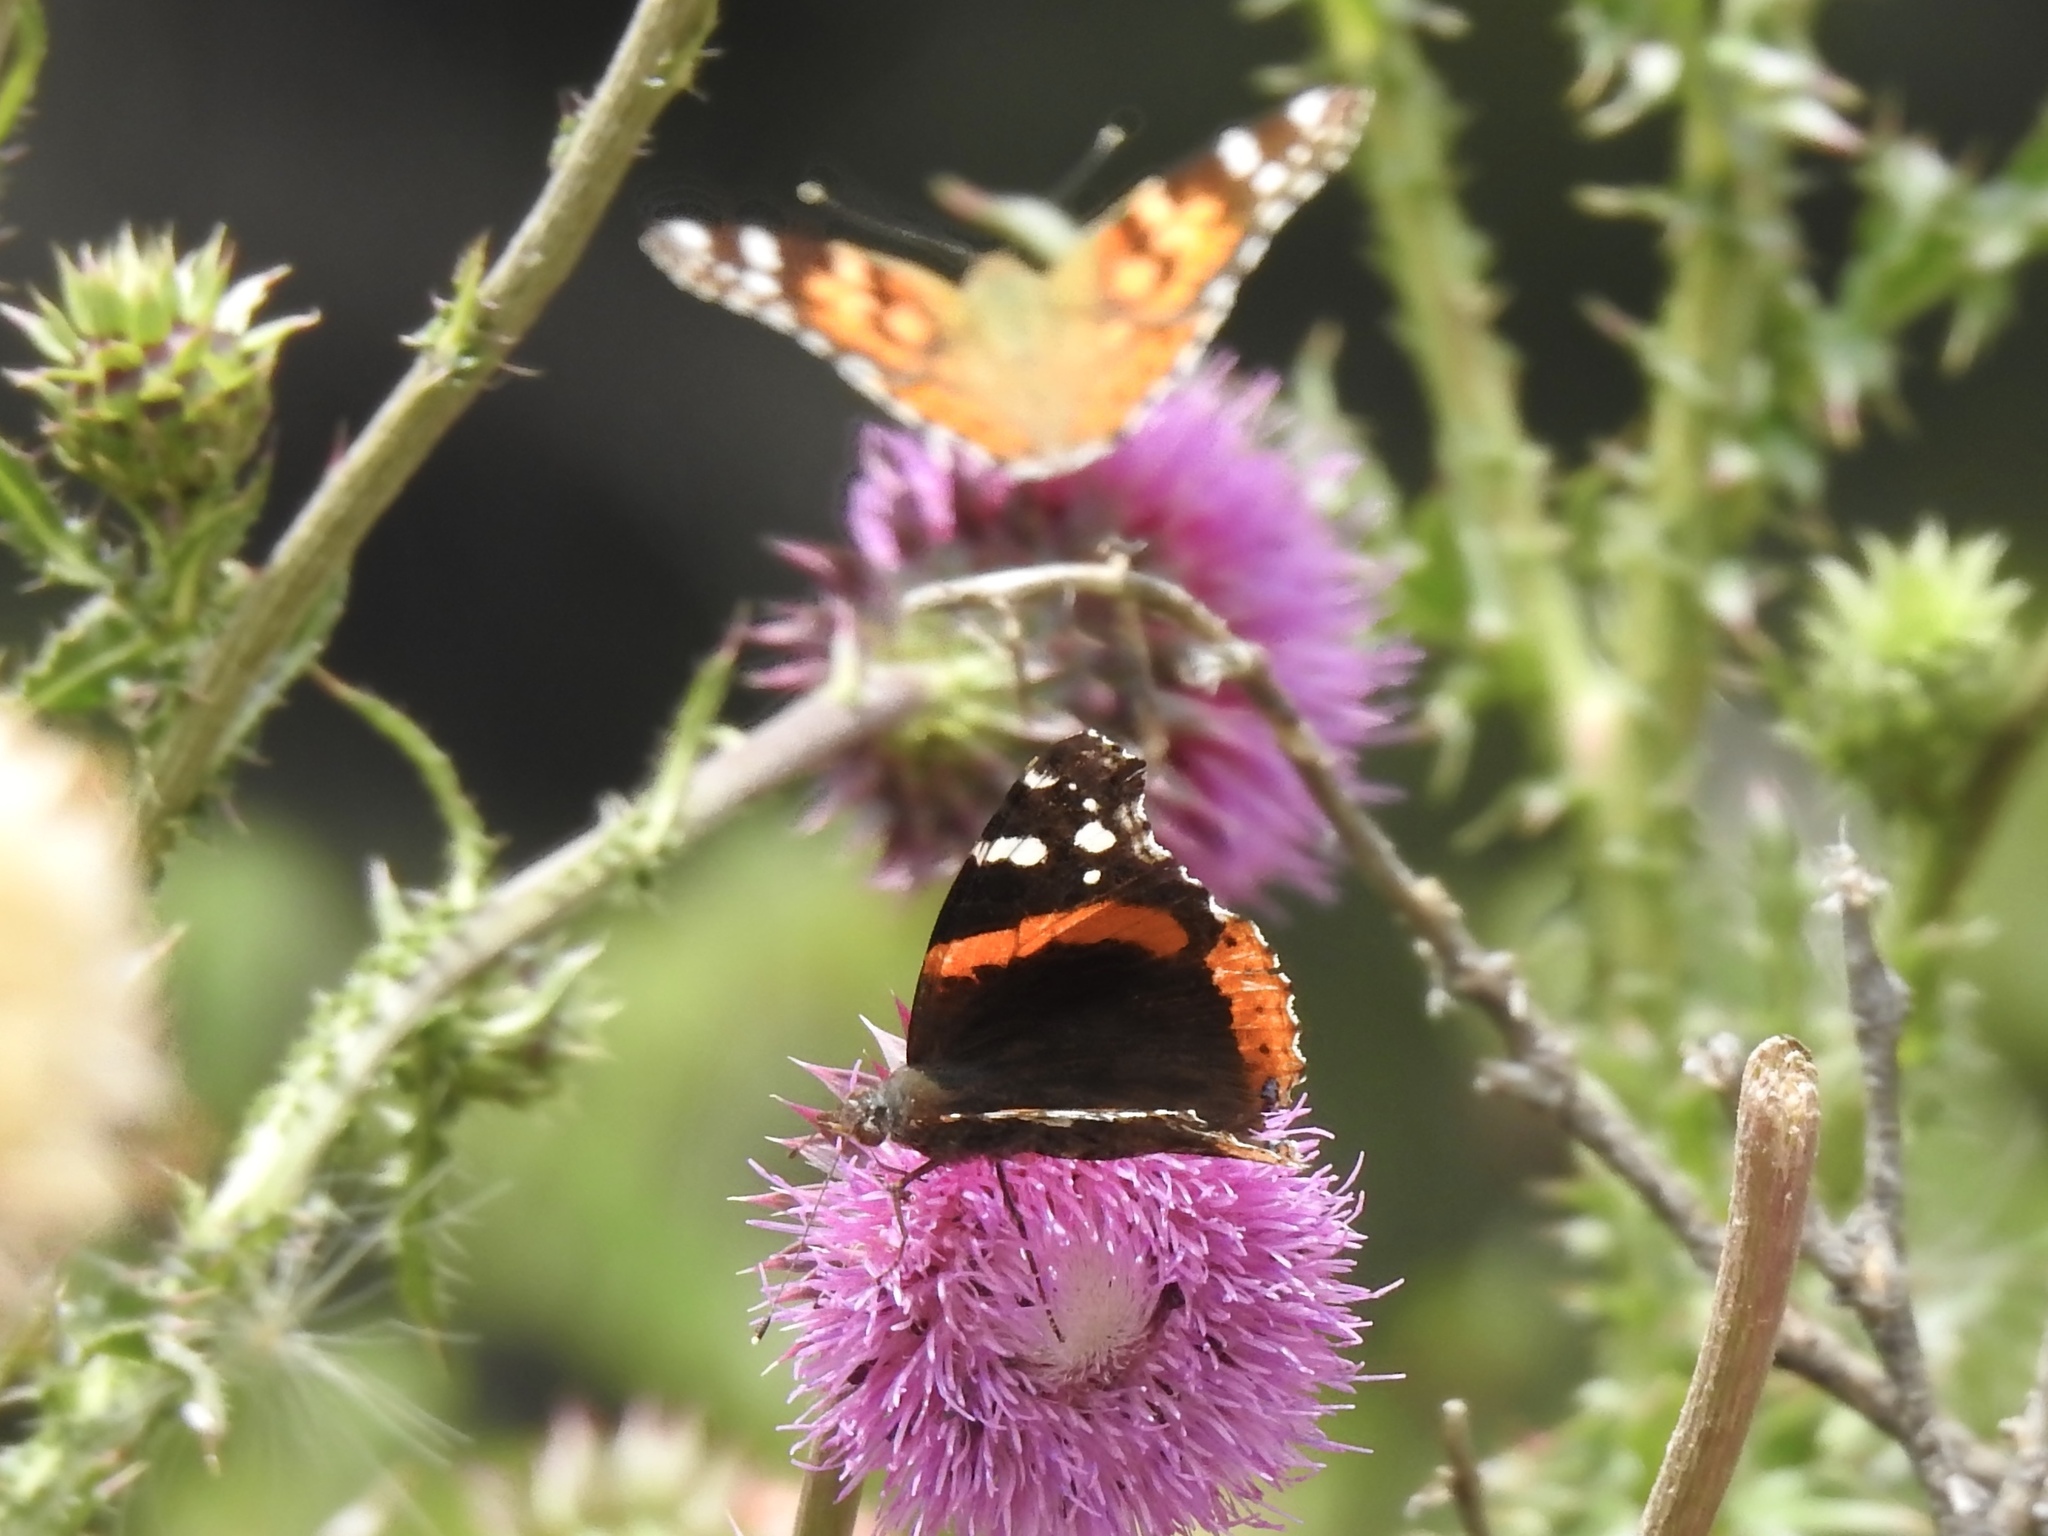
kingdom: Animalia
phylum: Arthropoda
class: Insecta
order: Lepidoptera
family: Nymphalidae
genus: Vanessa
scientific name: Vanessa atalanta
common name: Red admiral
